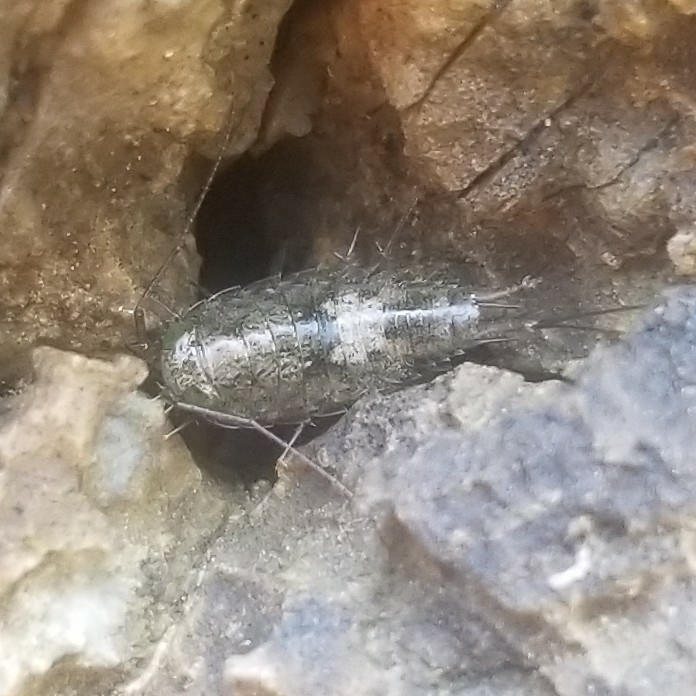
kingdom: Animalia
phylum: Arthropoda
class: Malacostraca
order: Isopoda
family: Ligiidae
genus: Ligia
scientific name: Ligia italica
